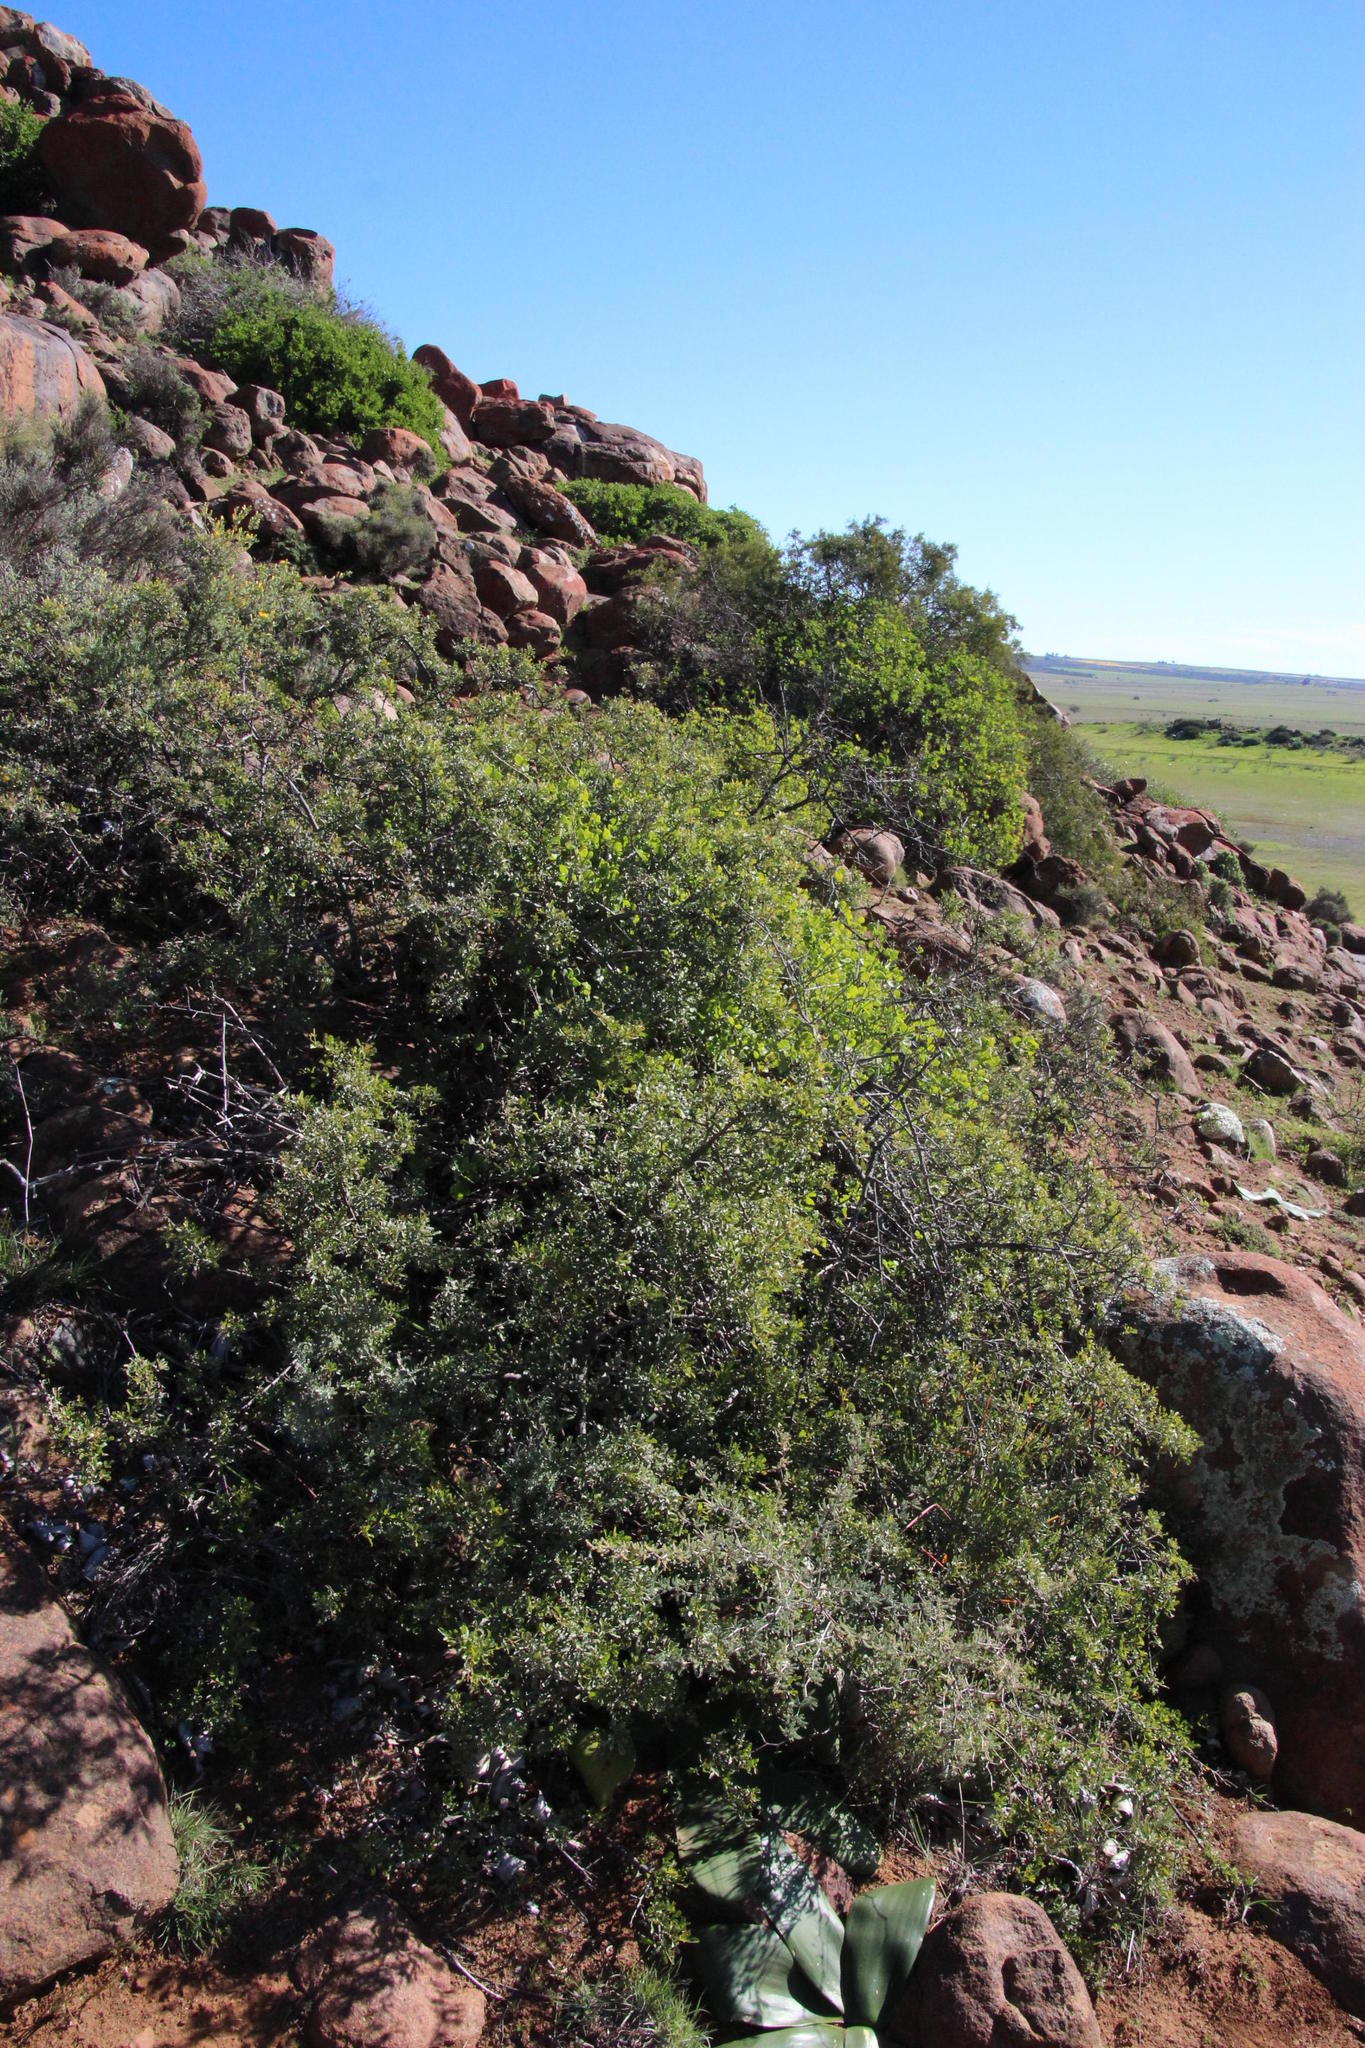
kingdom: Plantae
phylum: Tracheophyta
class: Magnoliopsida
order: Sapindales
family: Anacardiaceae
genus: Searsia
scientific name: Searsia undulata
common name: Namaqua kunibush
